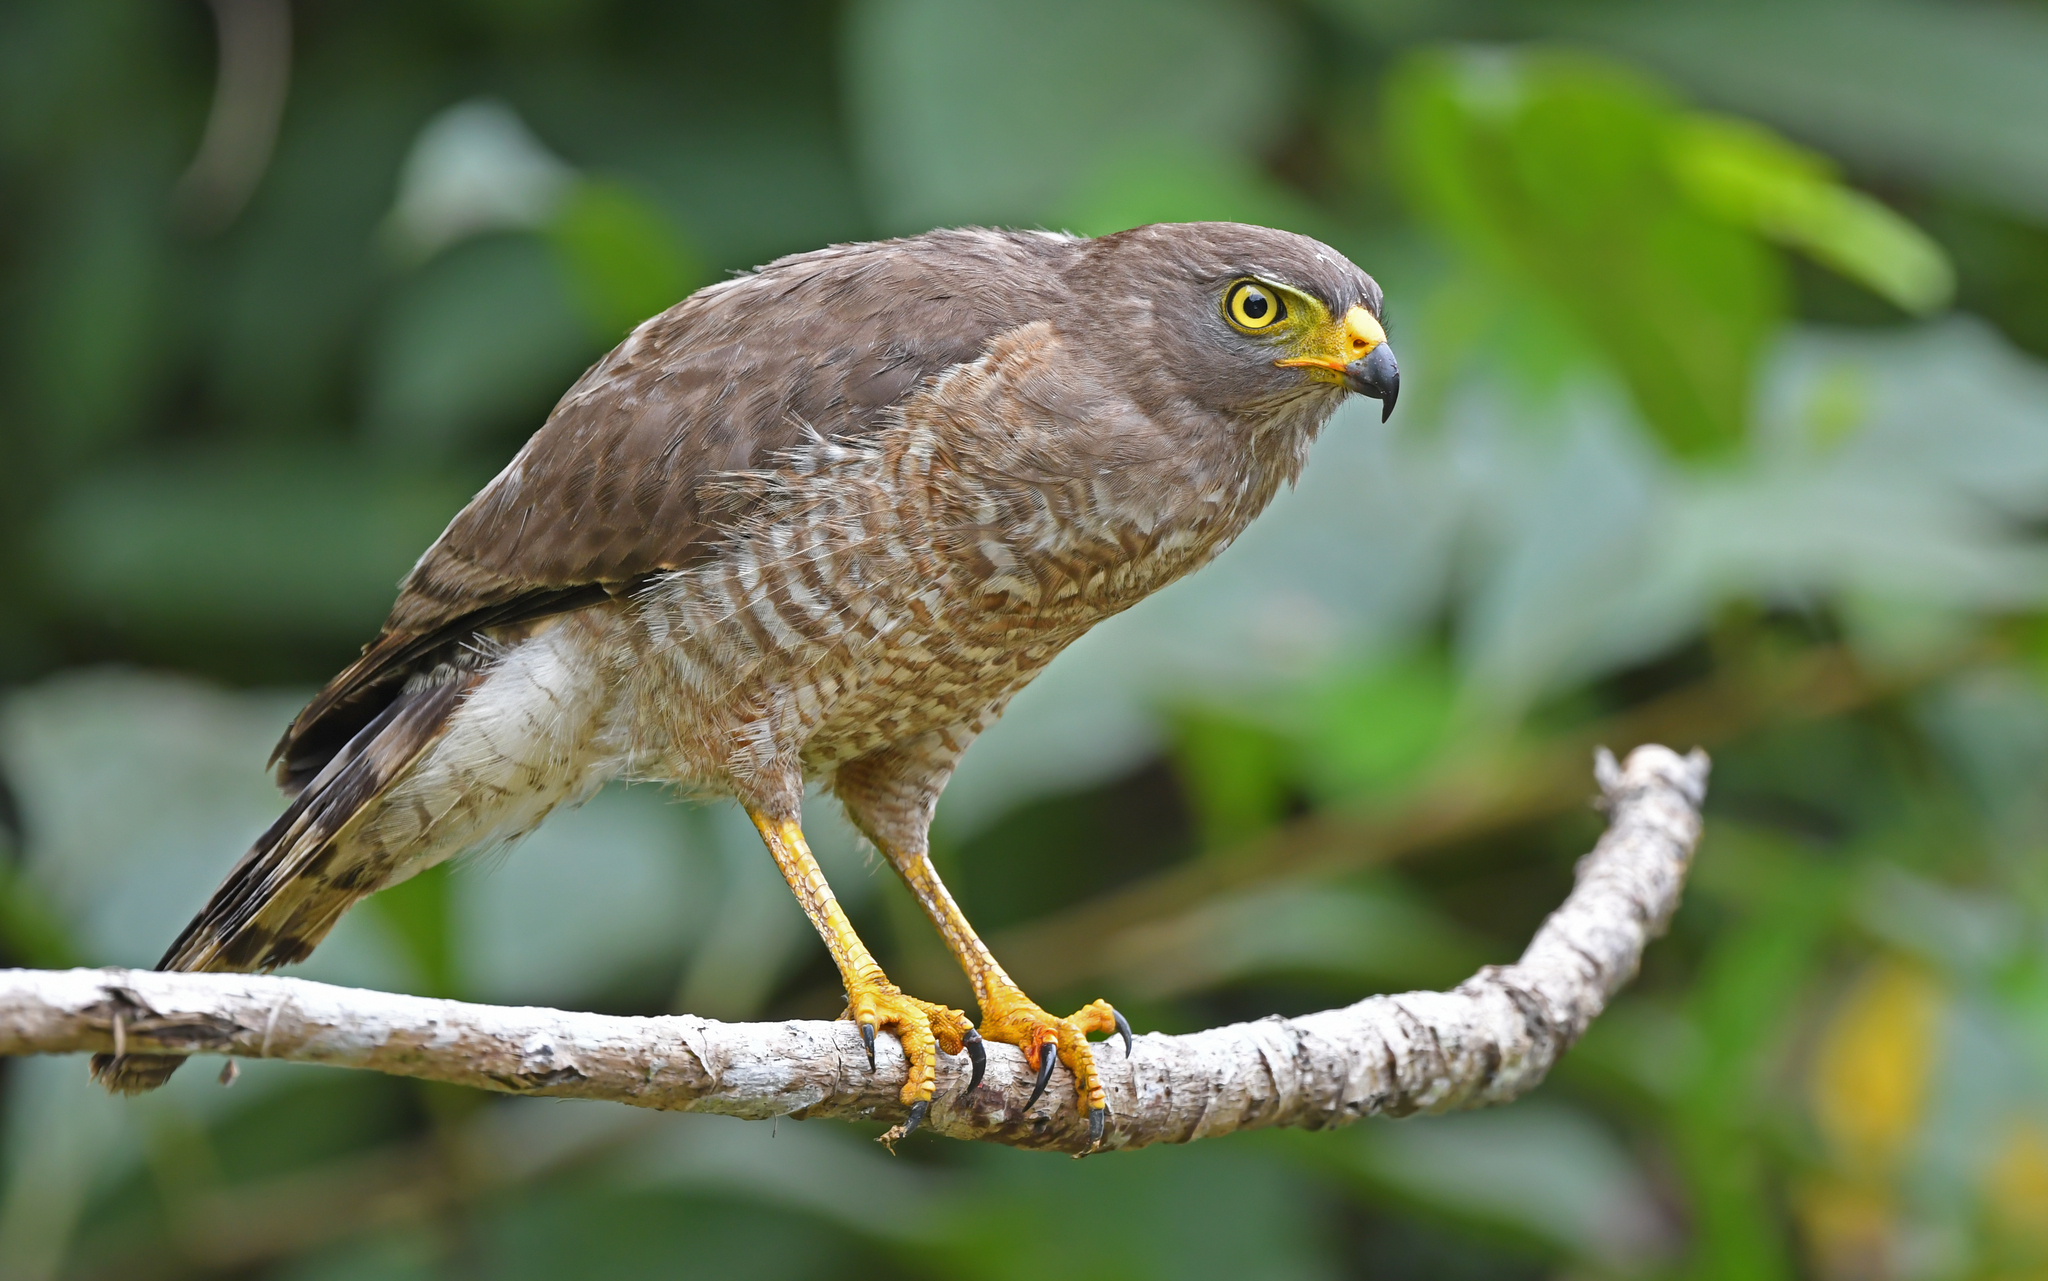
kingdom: Animalia
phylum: Chordata
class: Aves
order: Accipitriformes
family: Accipitridae
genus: Rupornis
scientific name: Rupornis magnirostris
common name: Roadside hawk
